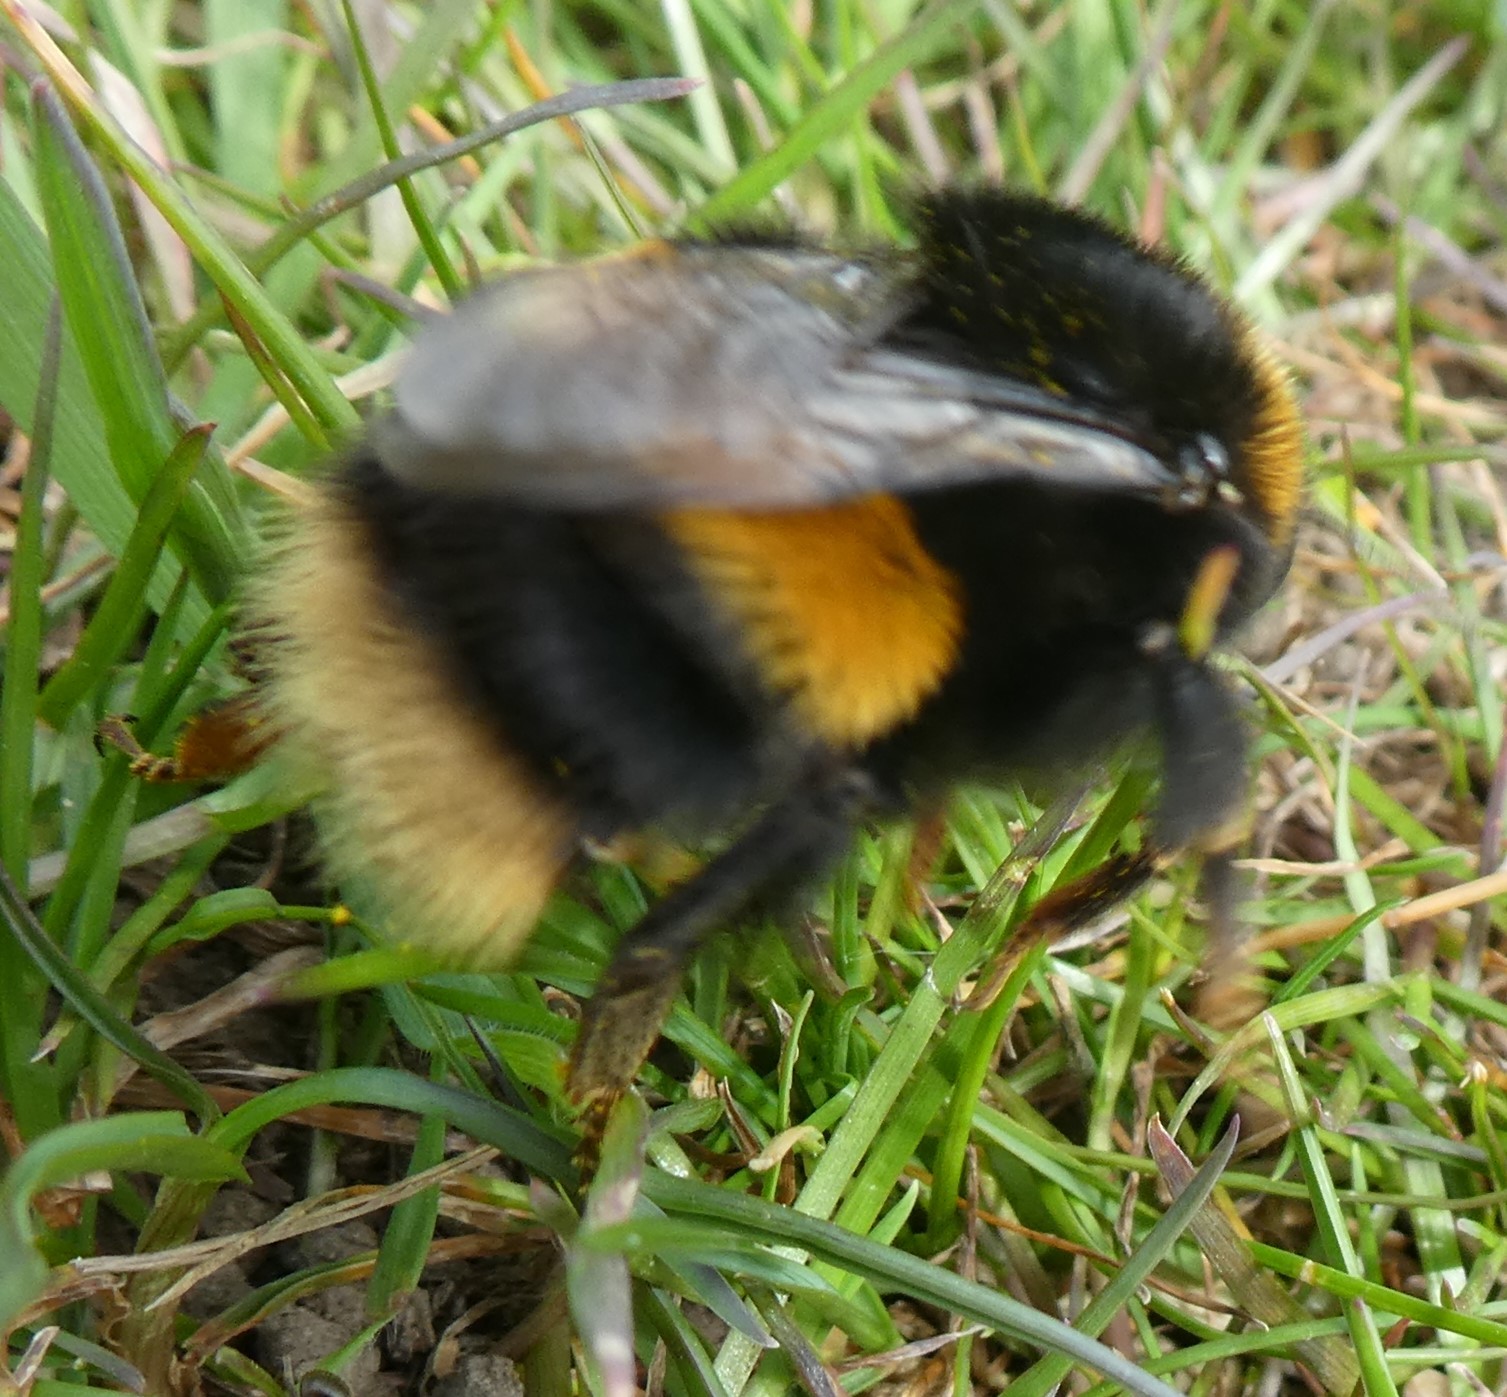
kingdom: Animalia
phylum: Arthropoda
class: Insecta
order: Hymenoptera
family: Apidae
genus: Bombus
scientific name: Bombus terrestris
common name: Buff-tailed bumblebee
